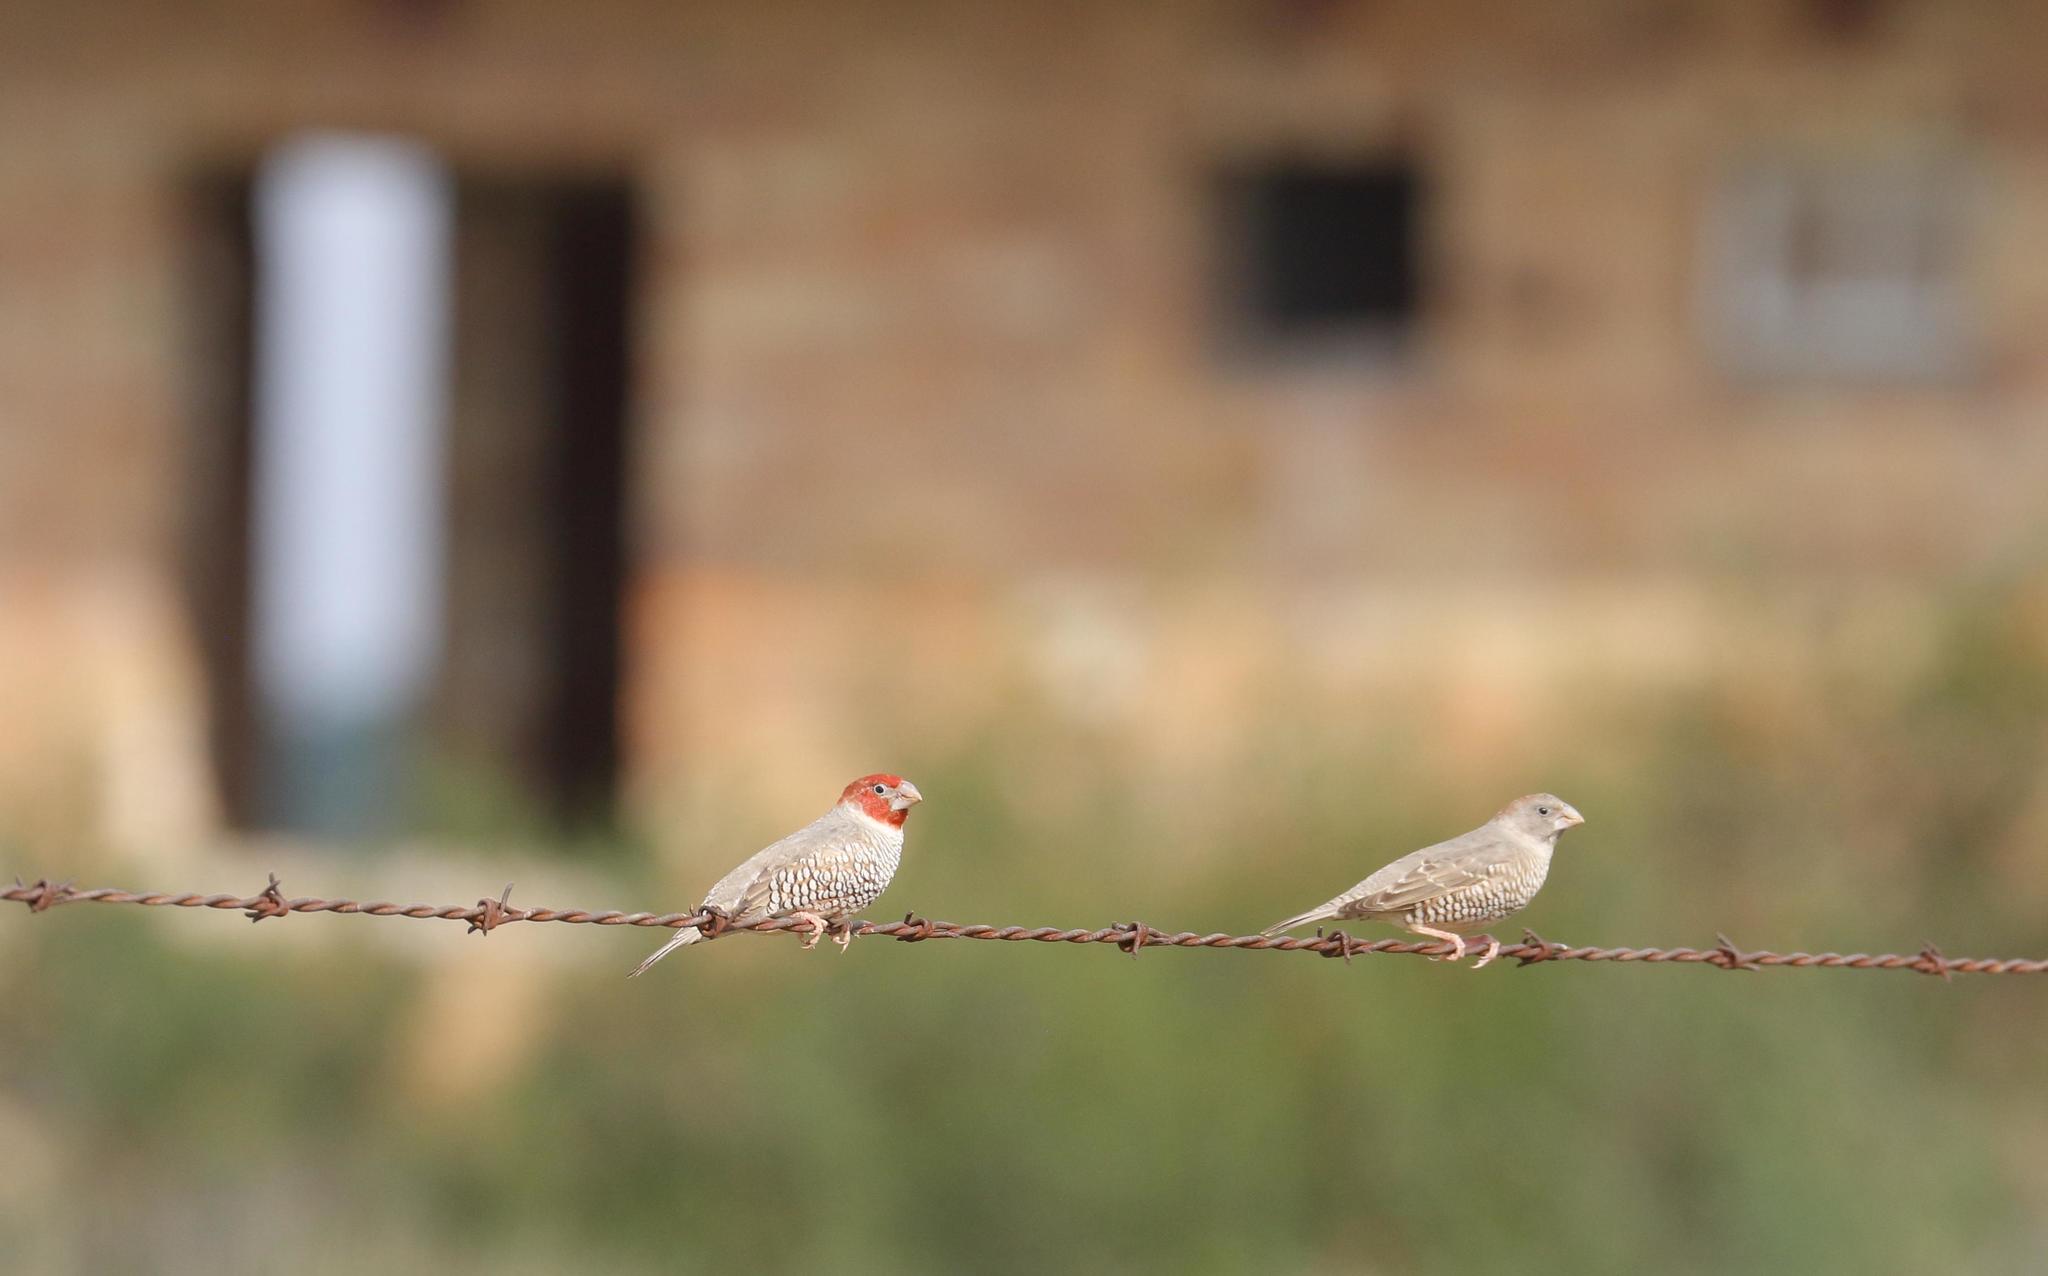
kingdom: Animalia
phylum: Chordata
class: Aves
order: Passeriformes
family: Estrildidae
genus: Amadina
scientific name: Amadina erythrocephala
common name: Red-headed finch
